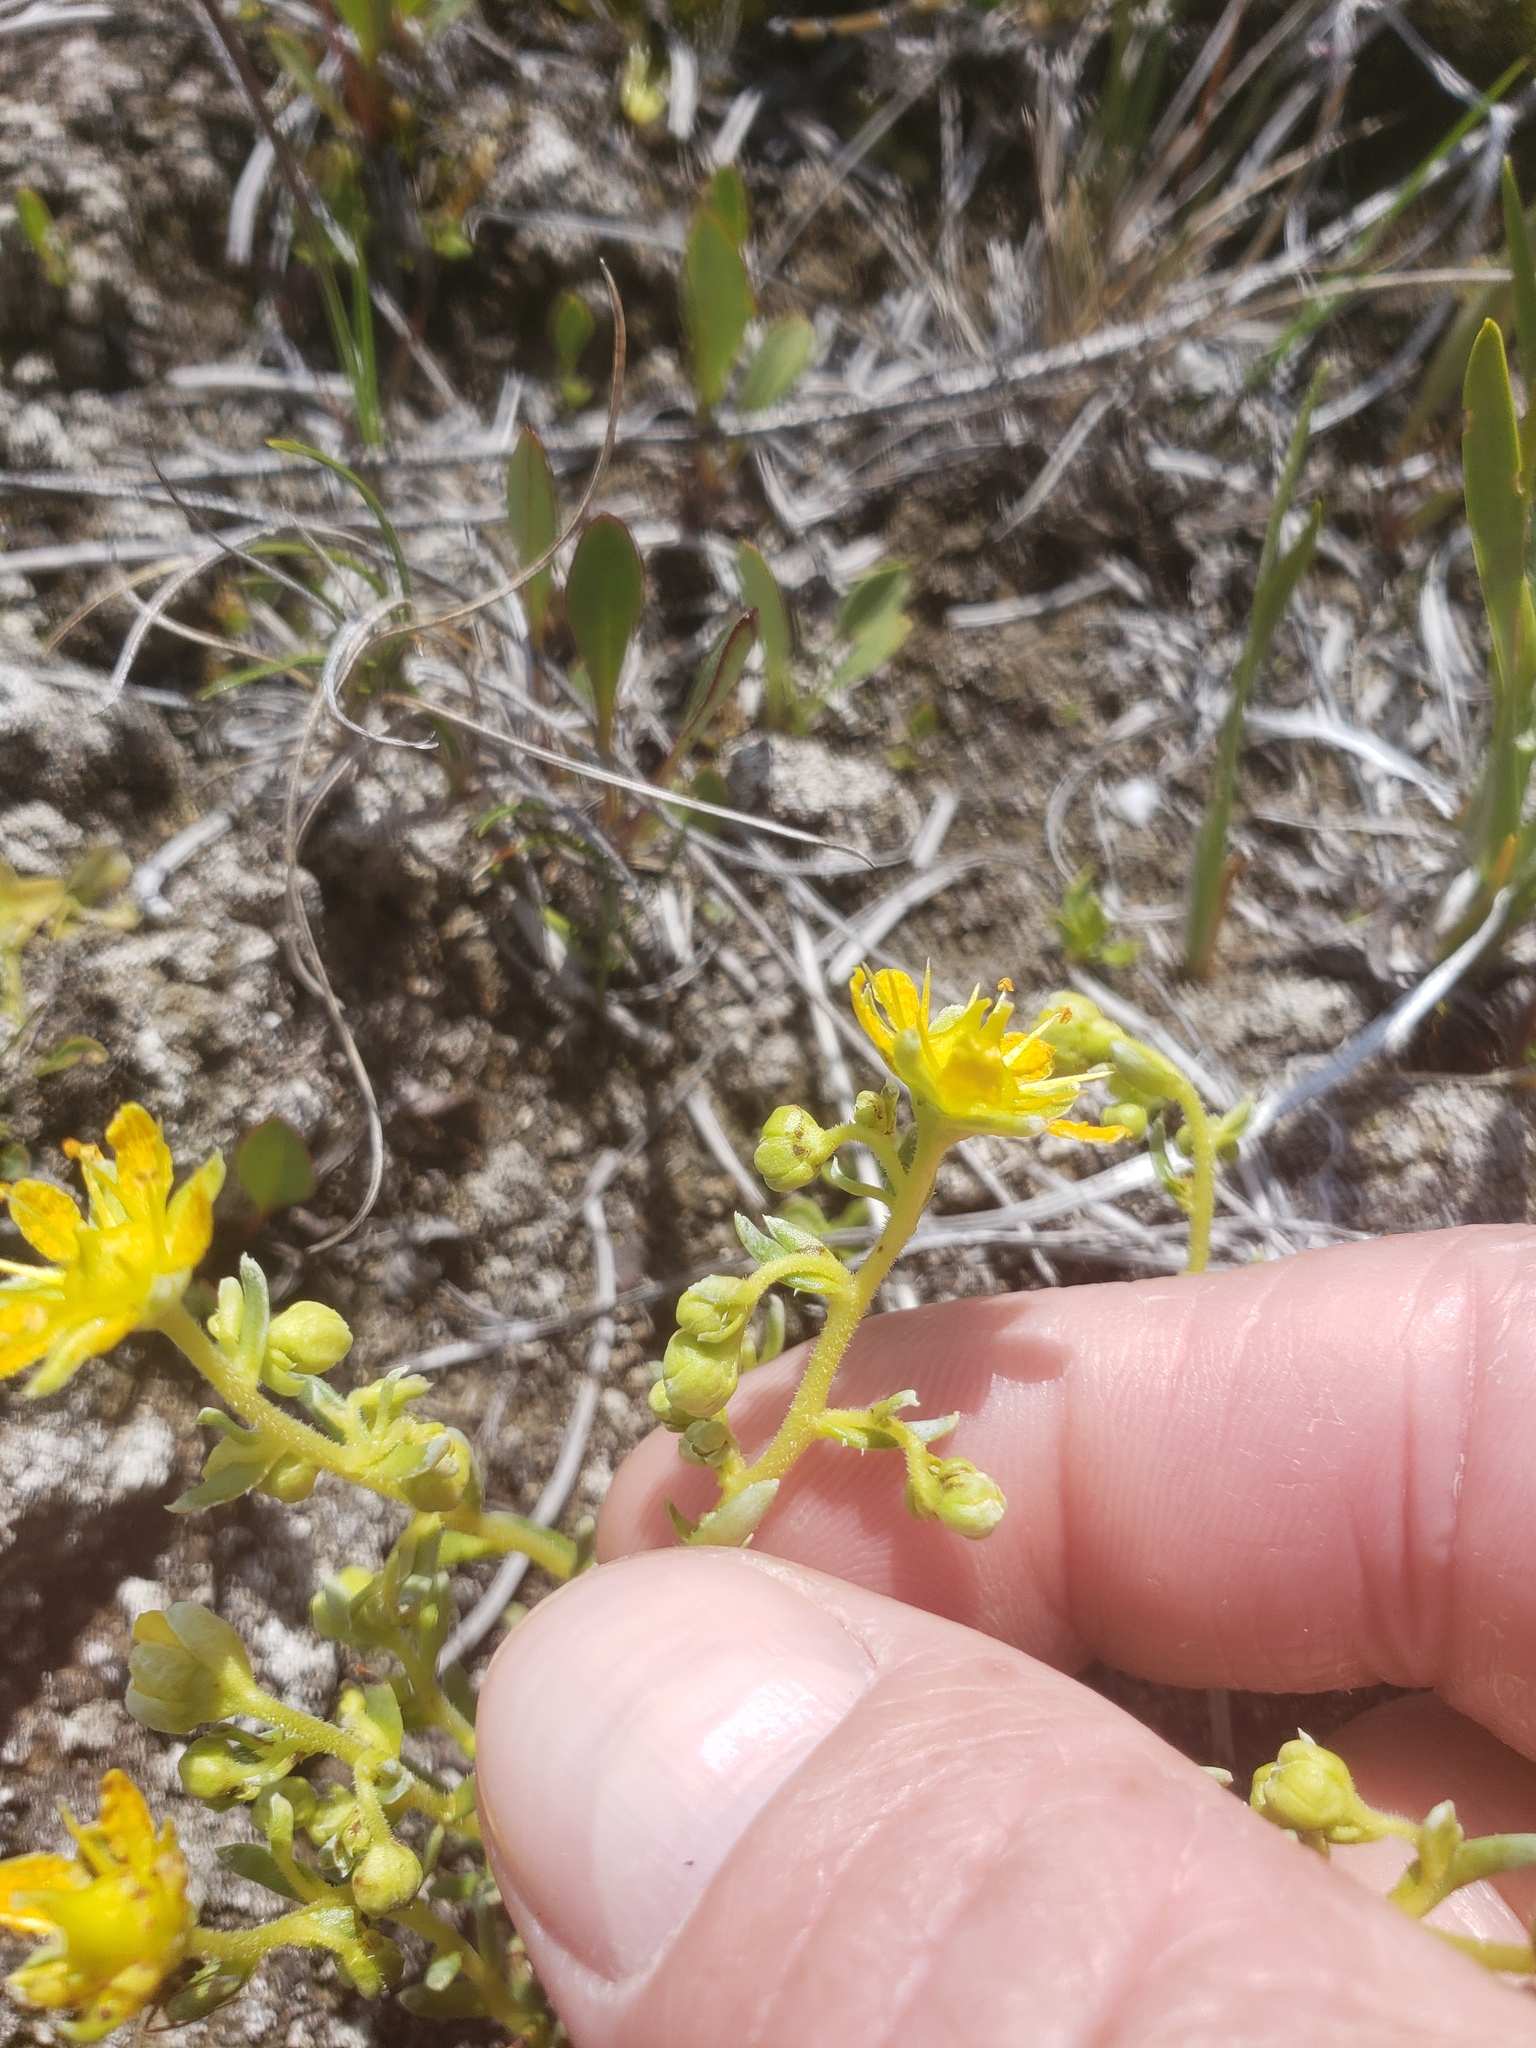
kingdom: Plantae
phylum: Tracheophyta
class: Magnoliopsida
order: Saxifragales
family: Saxifragaceae
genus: Saxifraga
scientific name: Saxifraga aizoides
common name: Yellow mountain saxifrage
